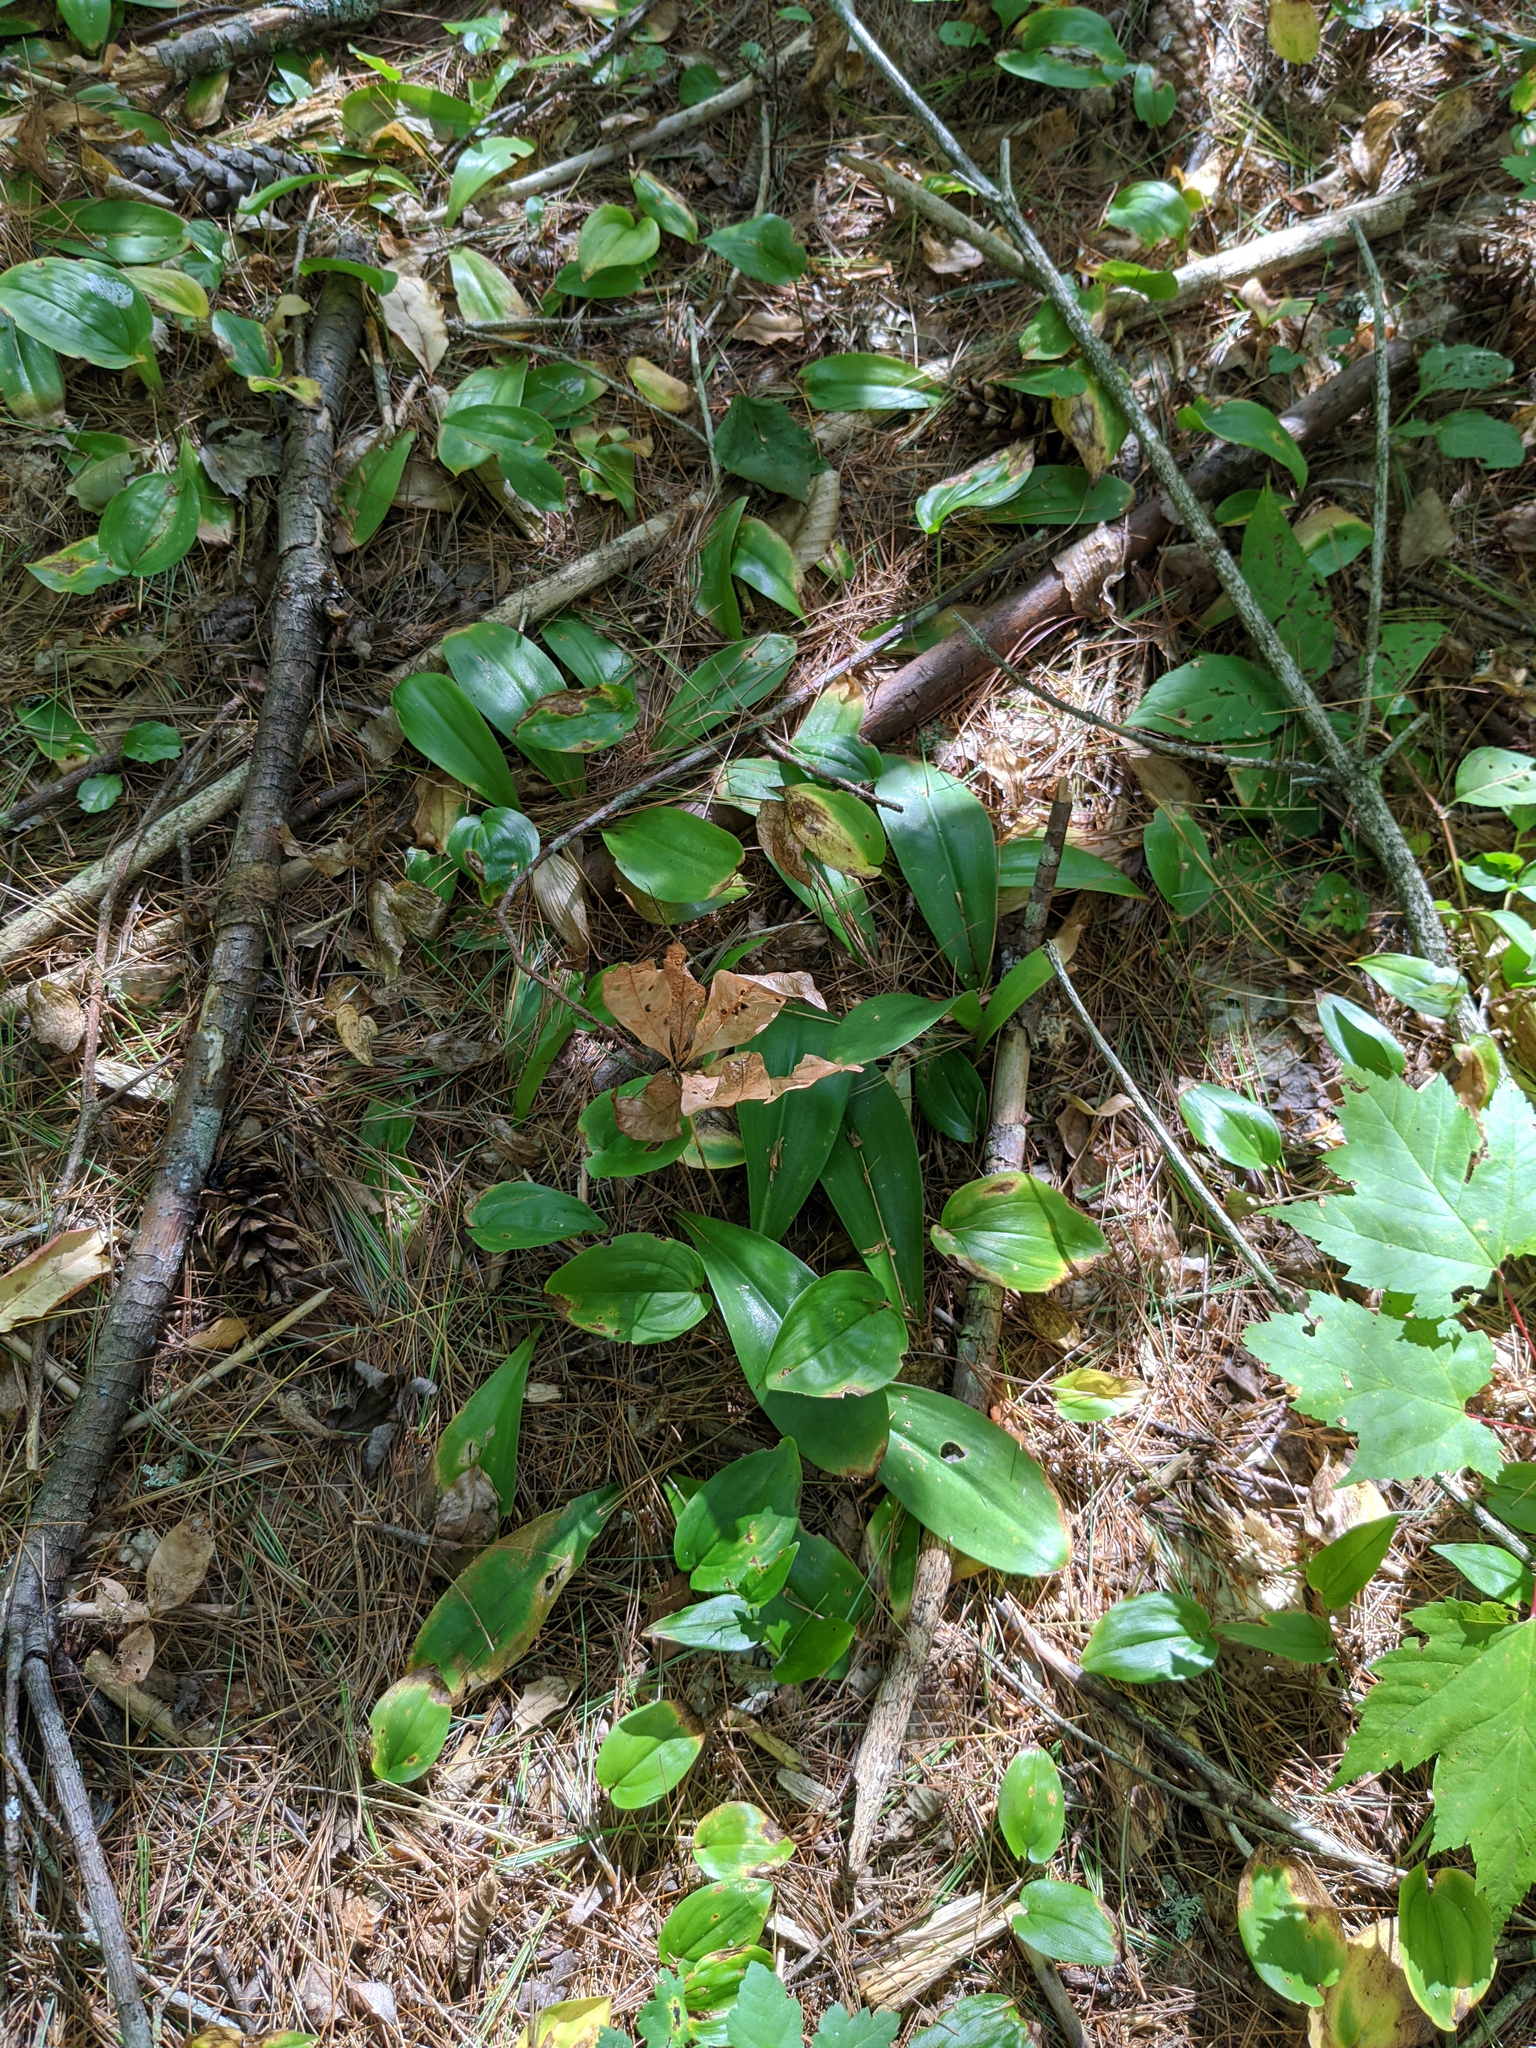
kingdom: Plantae
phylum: Tracheophyta
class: Liliopsida
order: Liliales
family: Liliaceae
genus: Clintonia
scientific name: Clintonia borealis
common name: Yellow clintonia
